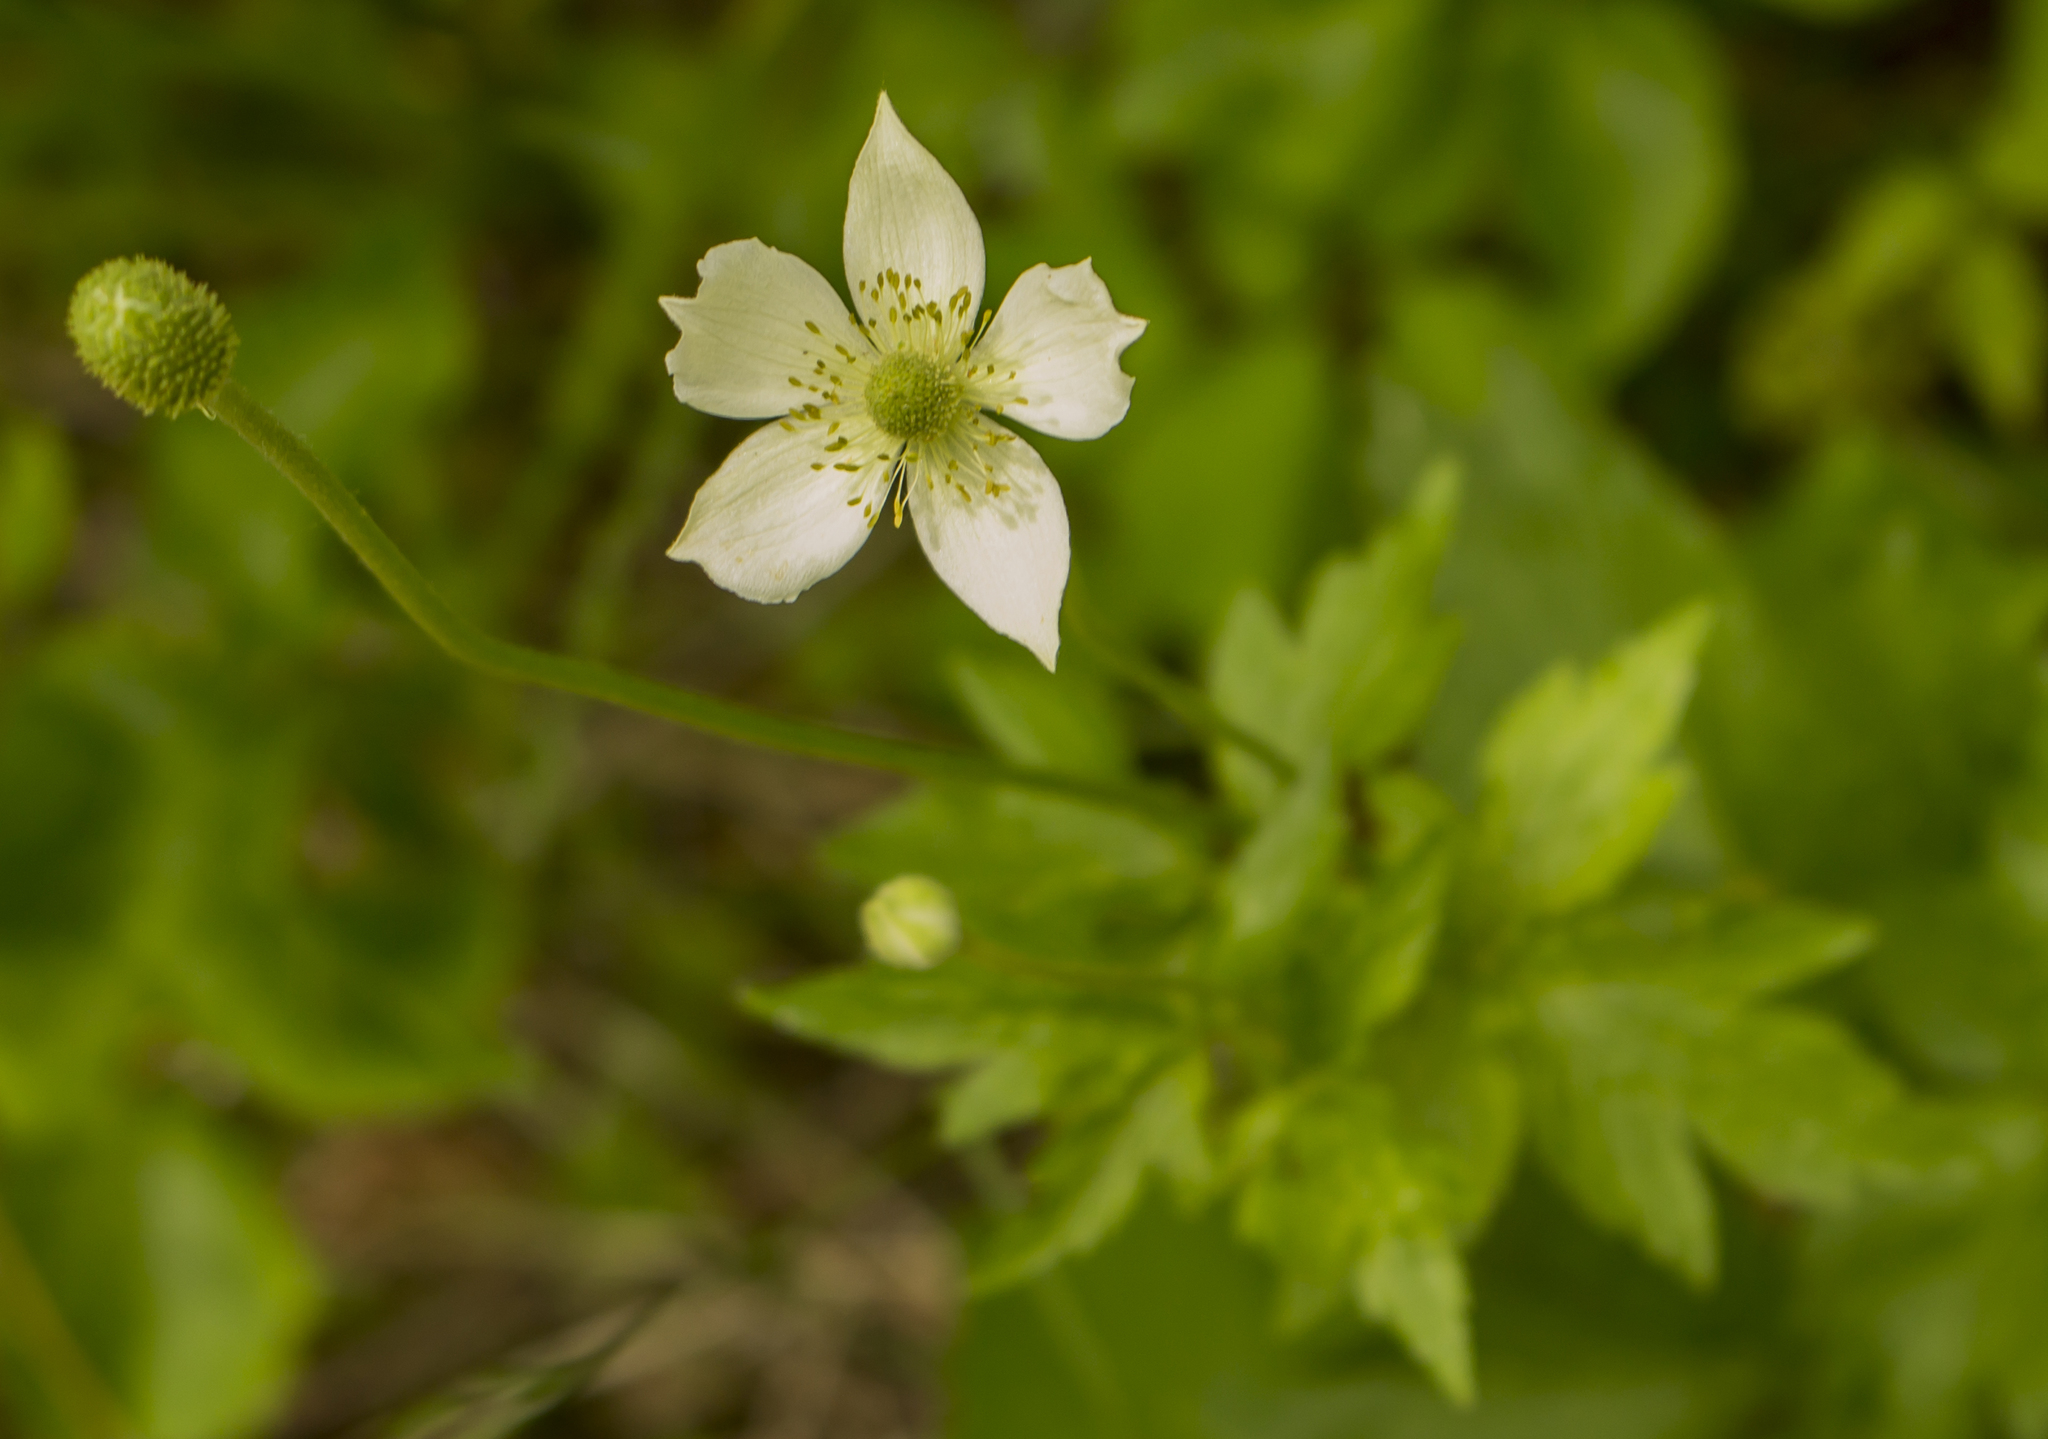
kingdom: Plantae
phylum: Tracheophyta
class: Magnoliopsida
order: Ranunculales
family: Ranunculaceae
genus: Anemone
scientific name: Anemone virginiana
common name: Tall anemone
